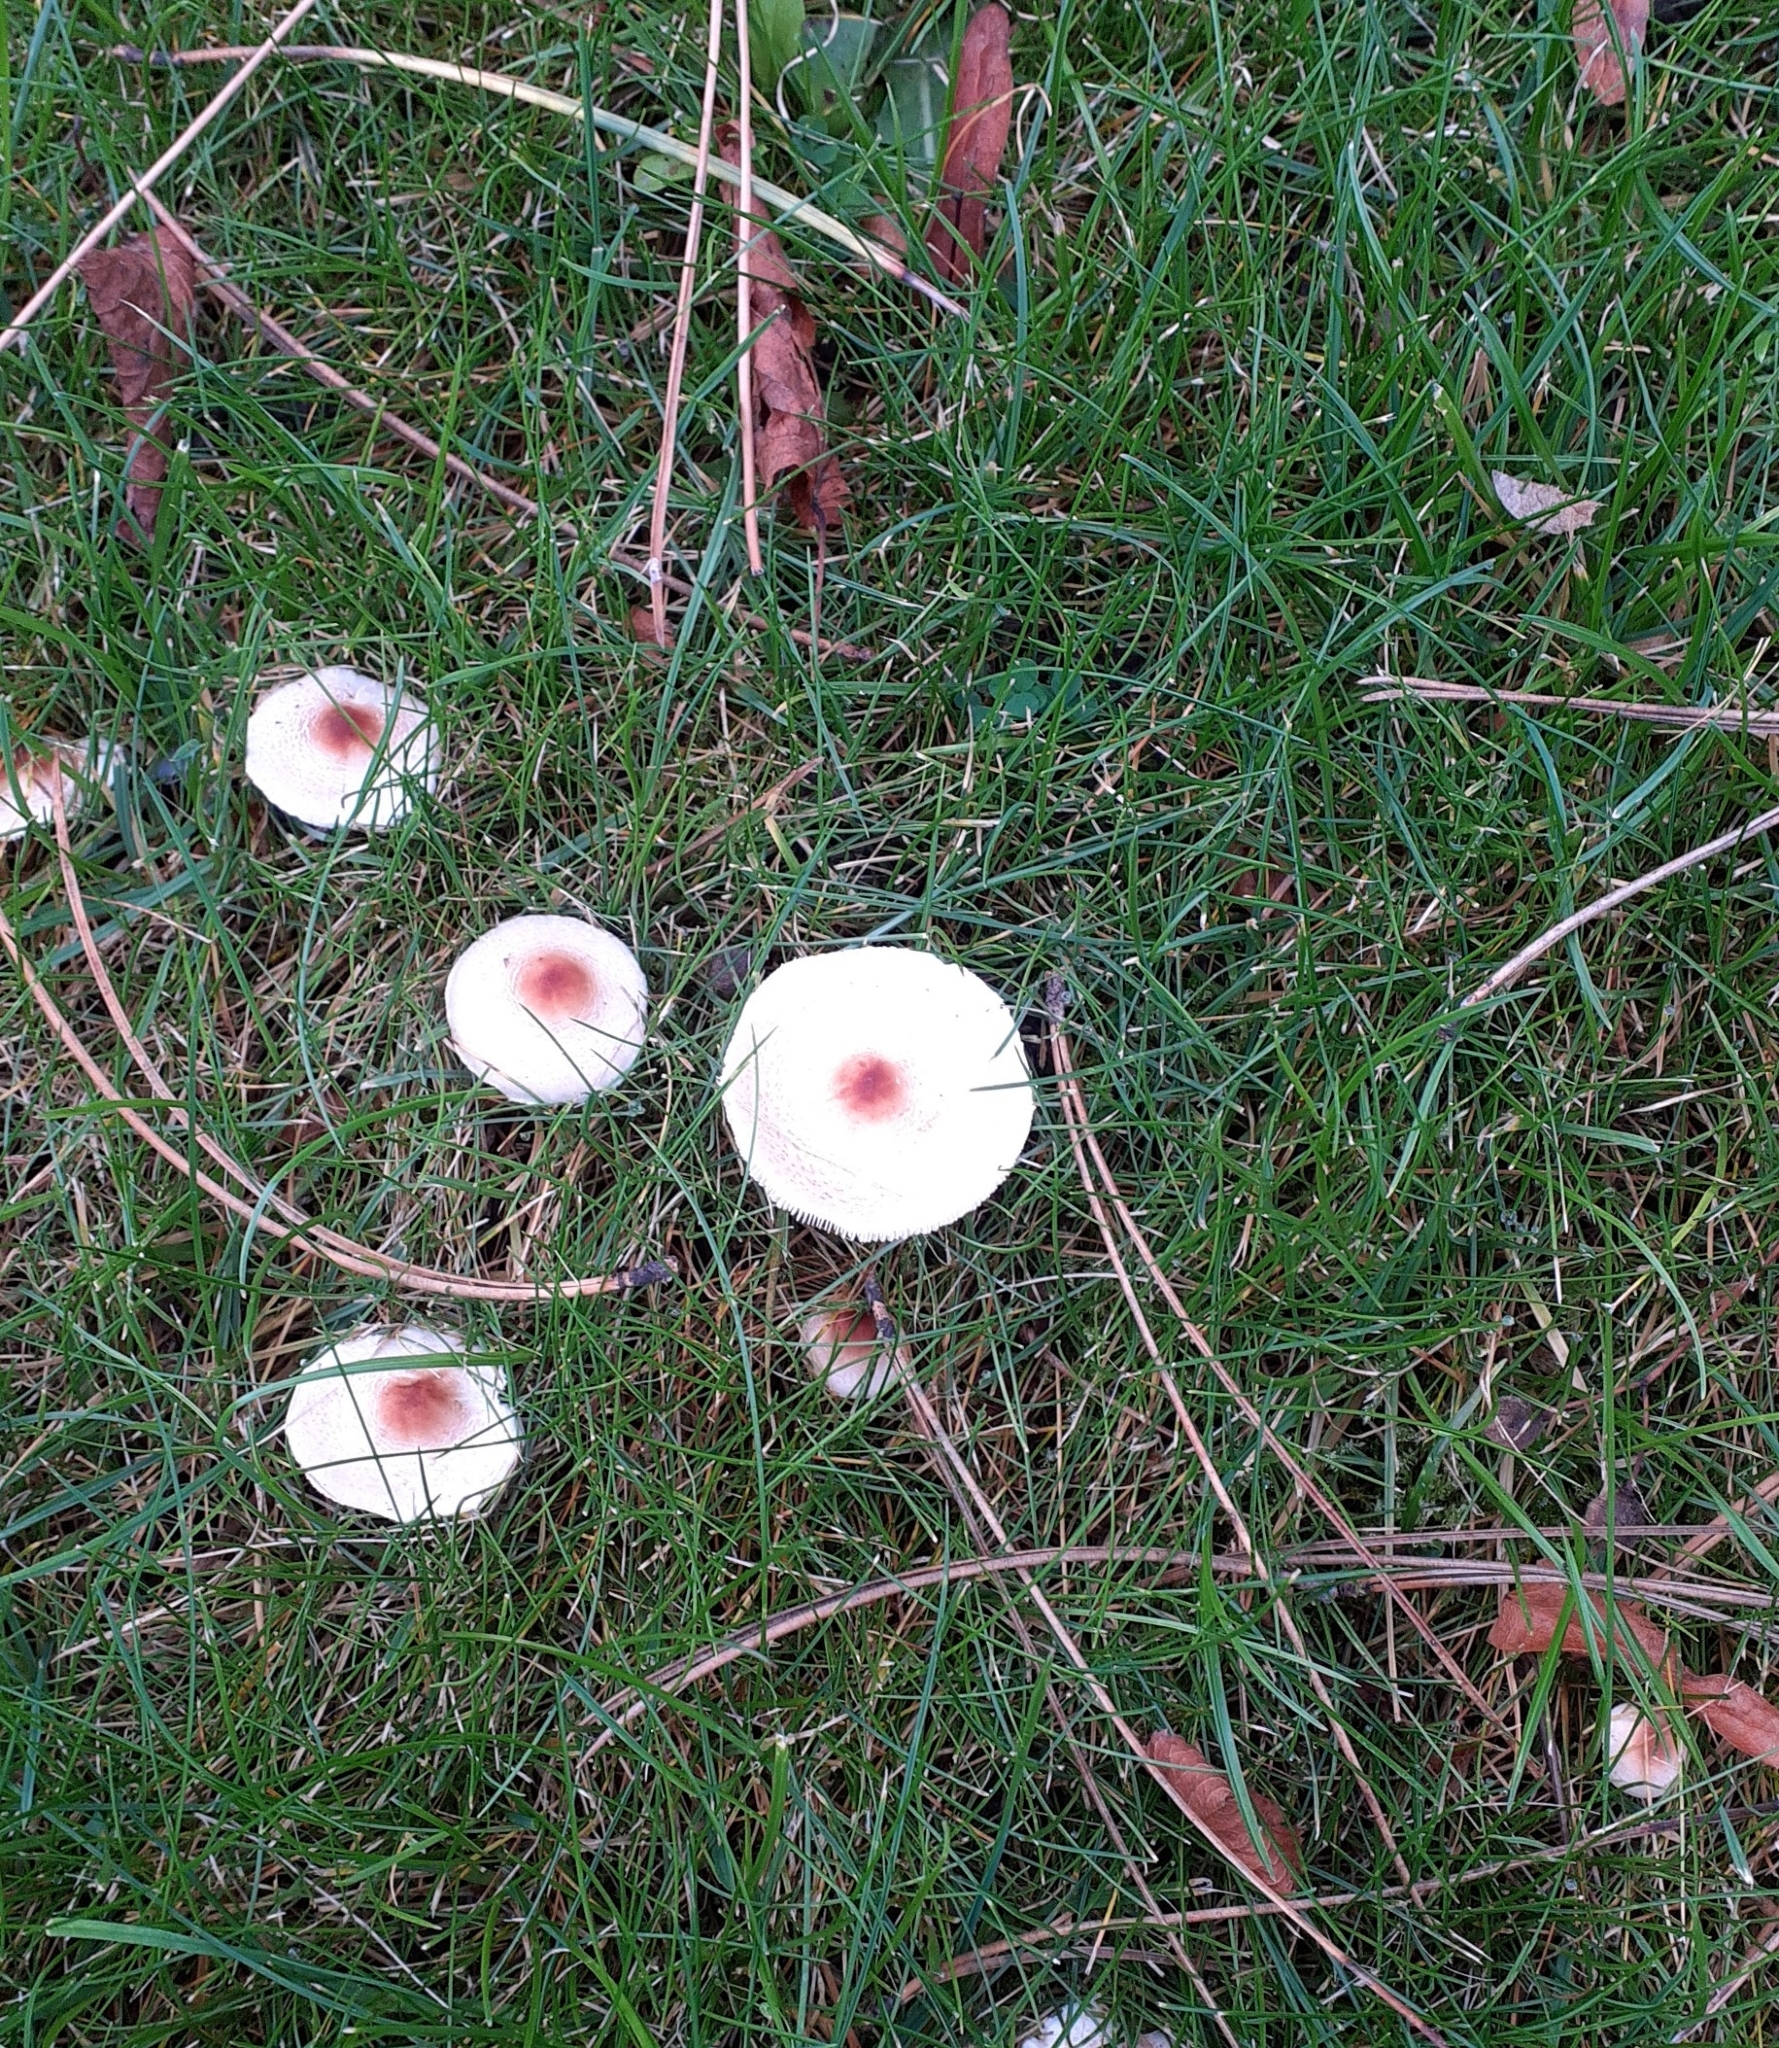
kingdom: Fungi
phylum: Basidiomycota
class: Agaricomycetes
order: Agaricales
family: Agaricaceae
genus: Lepiota
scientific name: Lepiota cristata
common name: Stinking dapperling
